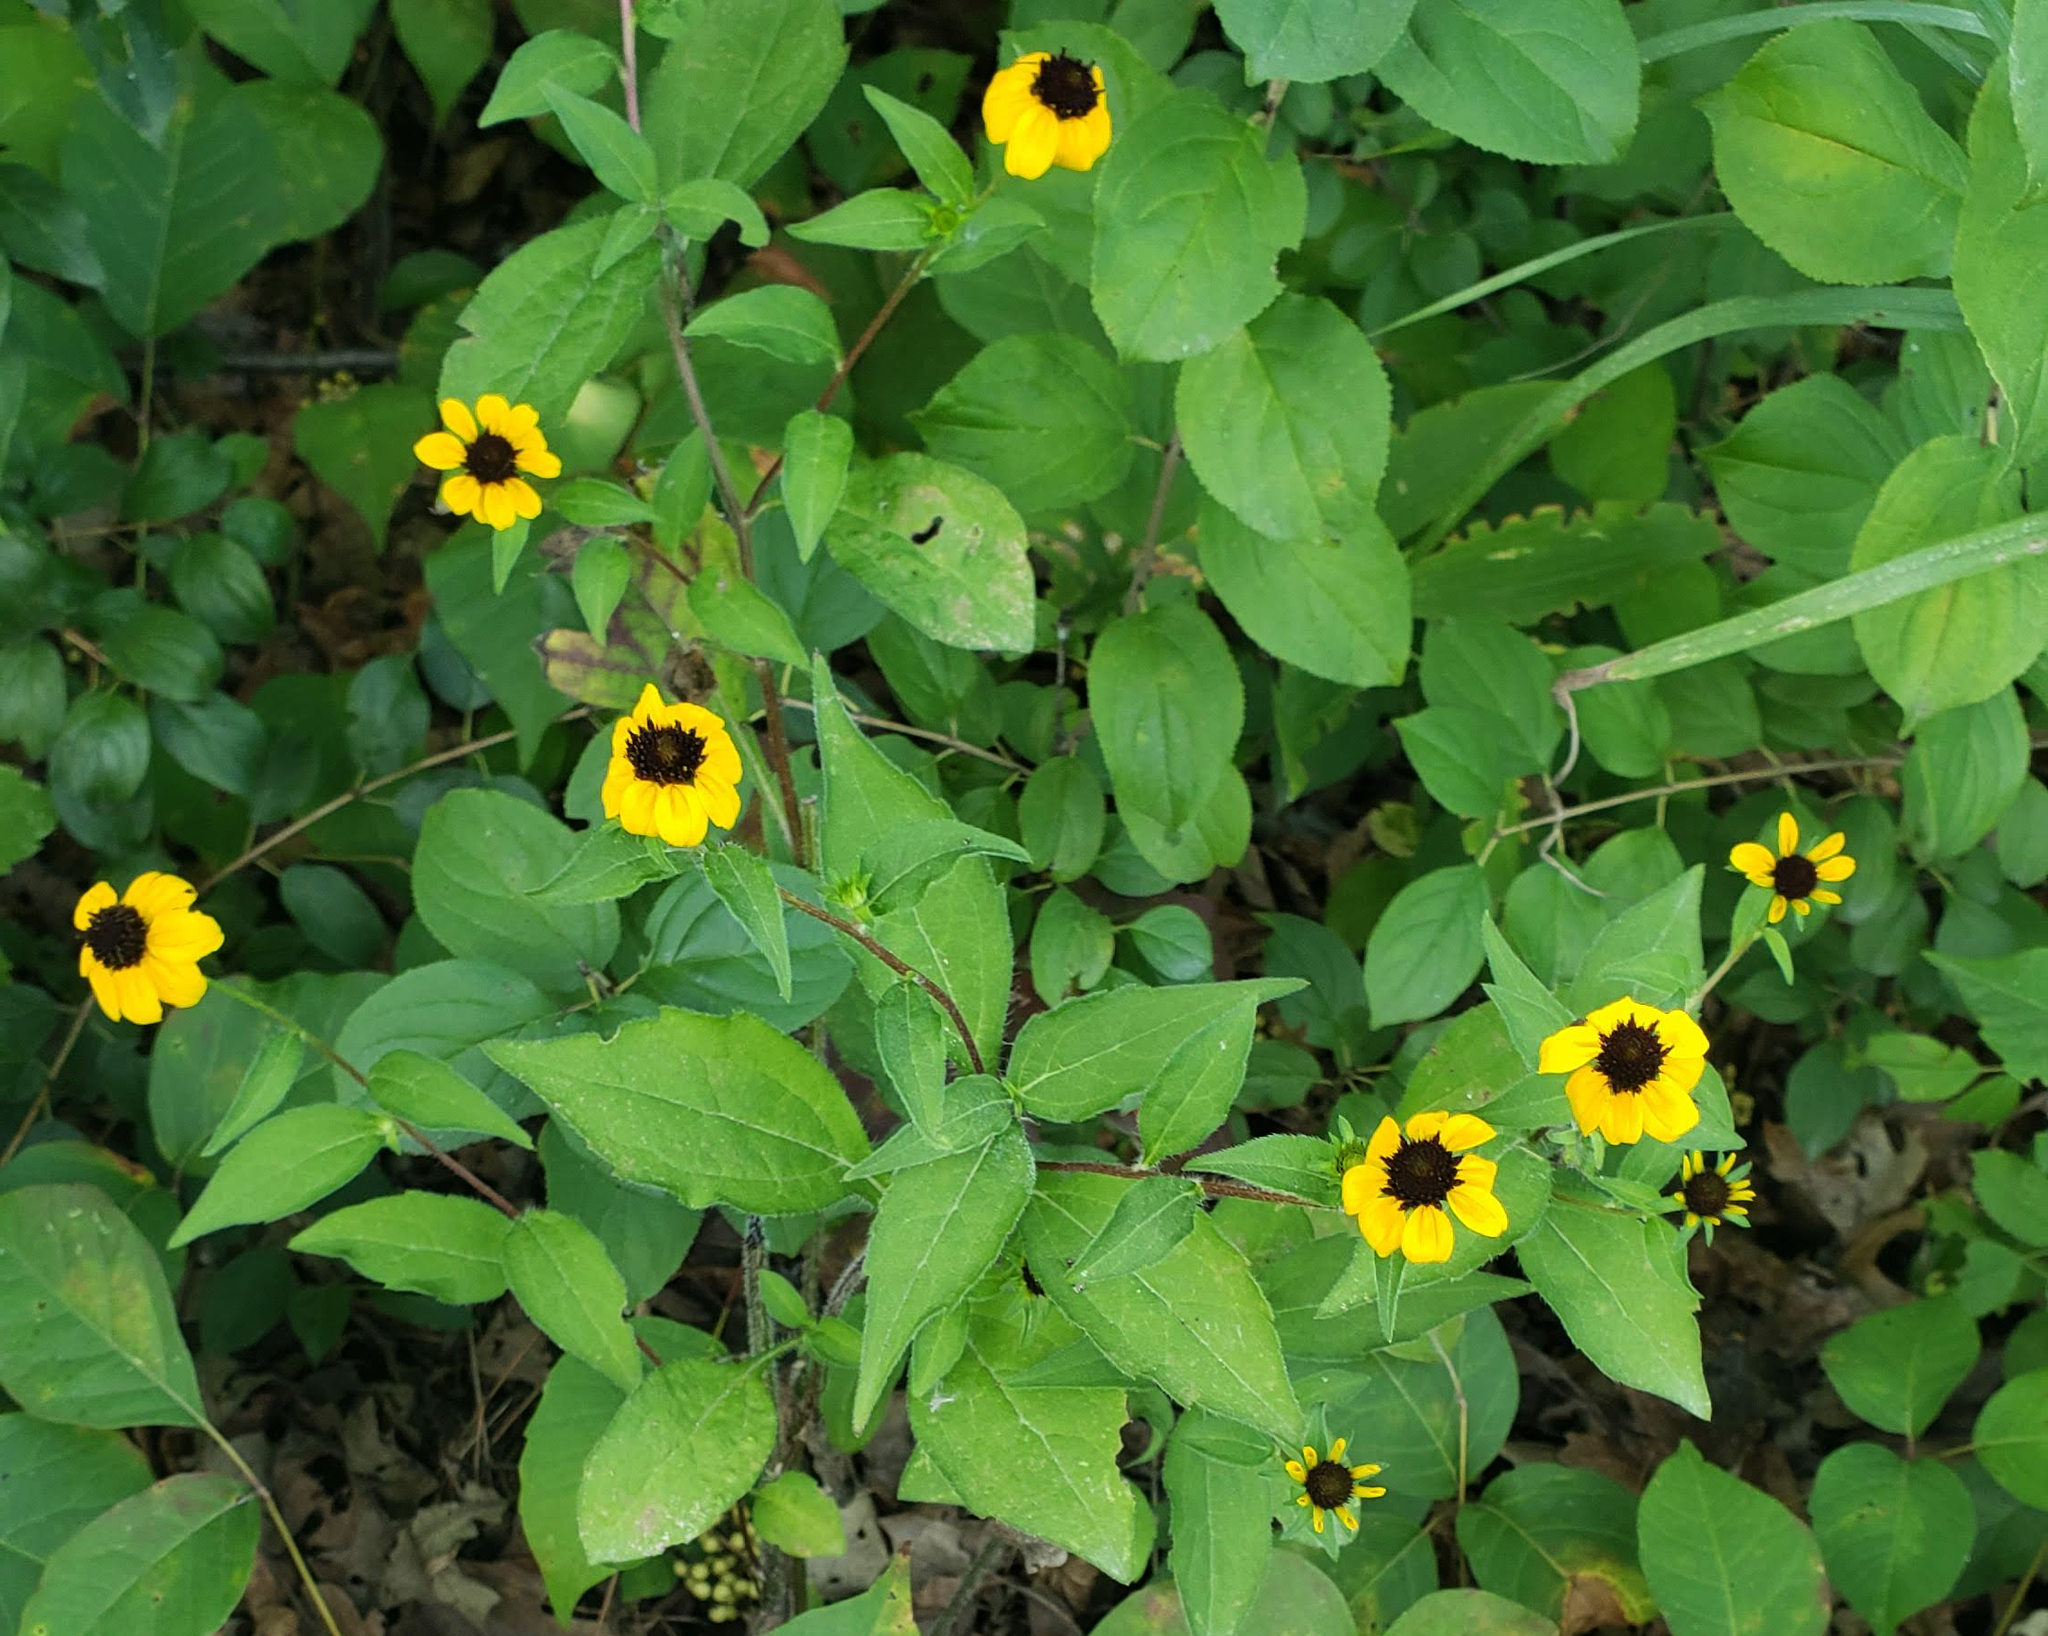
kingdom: Plantae
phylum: Tracheophyta
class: Magnoliopsida
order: Asterales
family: Asteraceae
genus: Rudbeckia
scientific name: Rudbeckia triloba
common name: Thin-leaved coneflower
